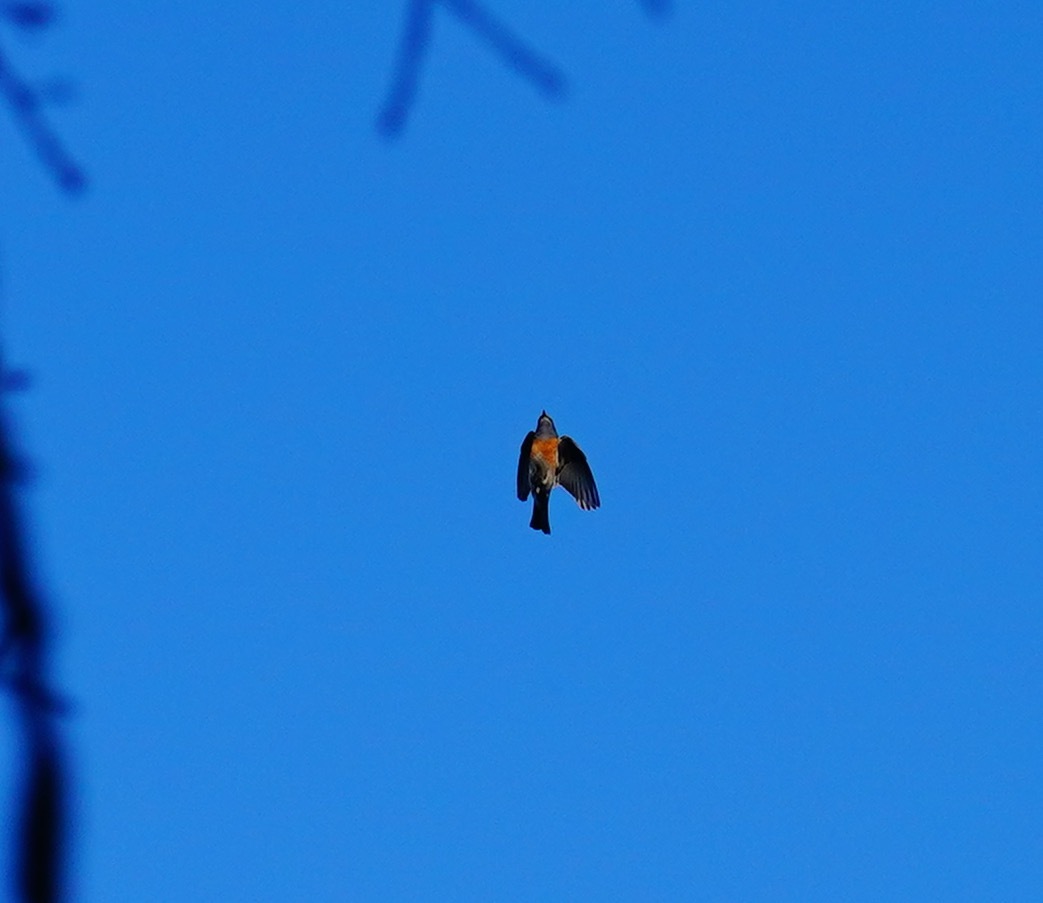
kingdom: Animalia
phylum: Chordata
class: Aves
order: Passeriformes
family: Turdidae
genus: Sialia
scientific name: Sialia mexicana
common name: Western bluebird
